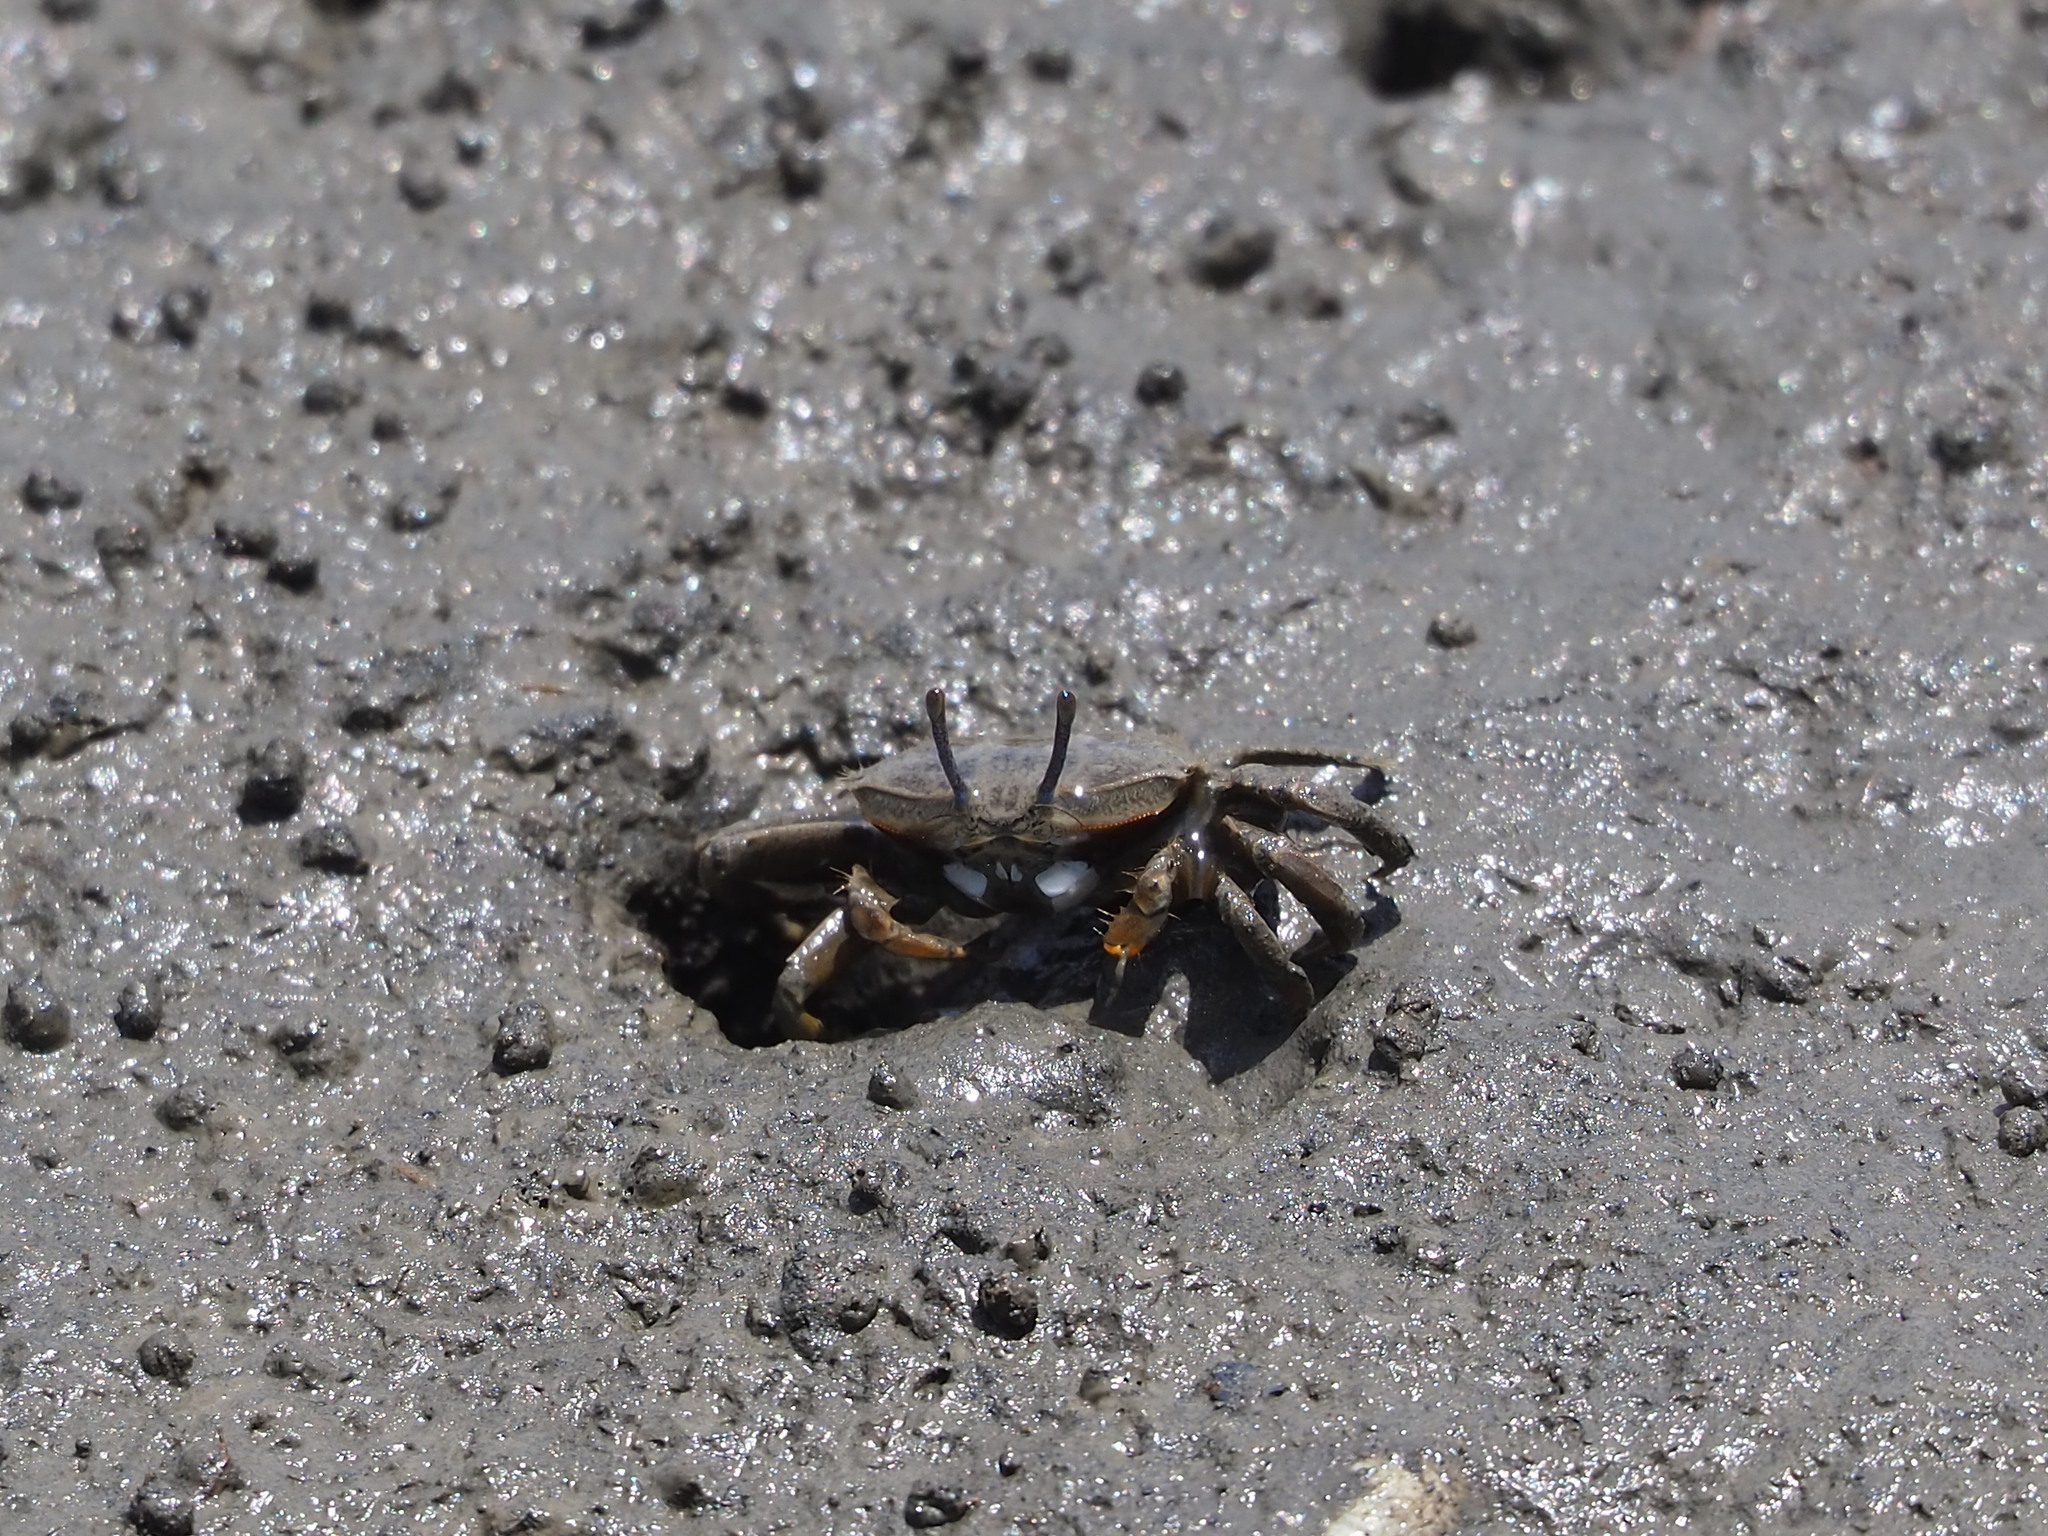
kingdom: Animalia
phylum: Arthropoda
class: Malacostraca
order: Decapoda
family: Macrophthalmidae
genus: Macrophthalmus
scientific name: Macrophthalmus banzai
